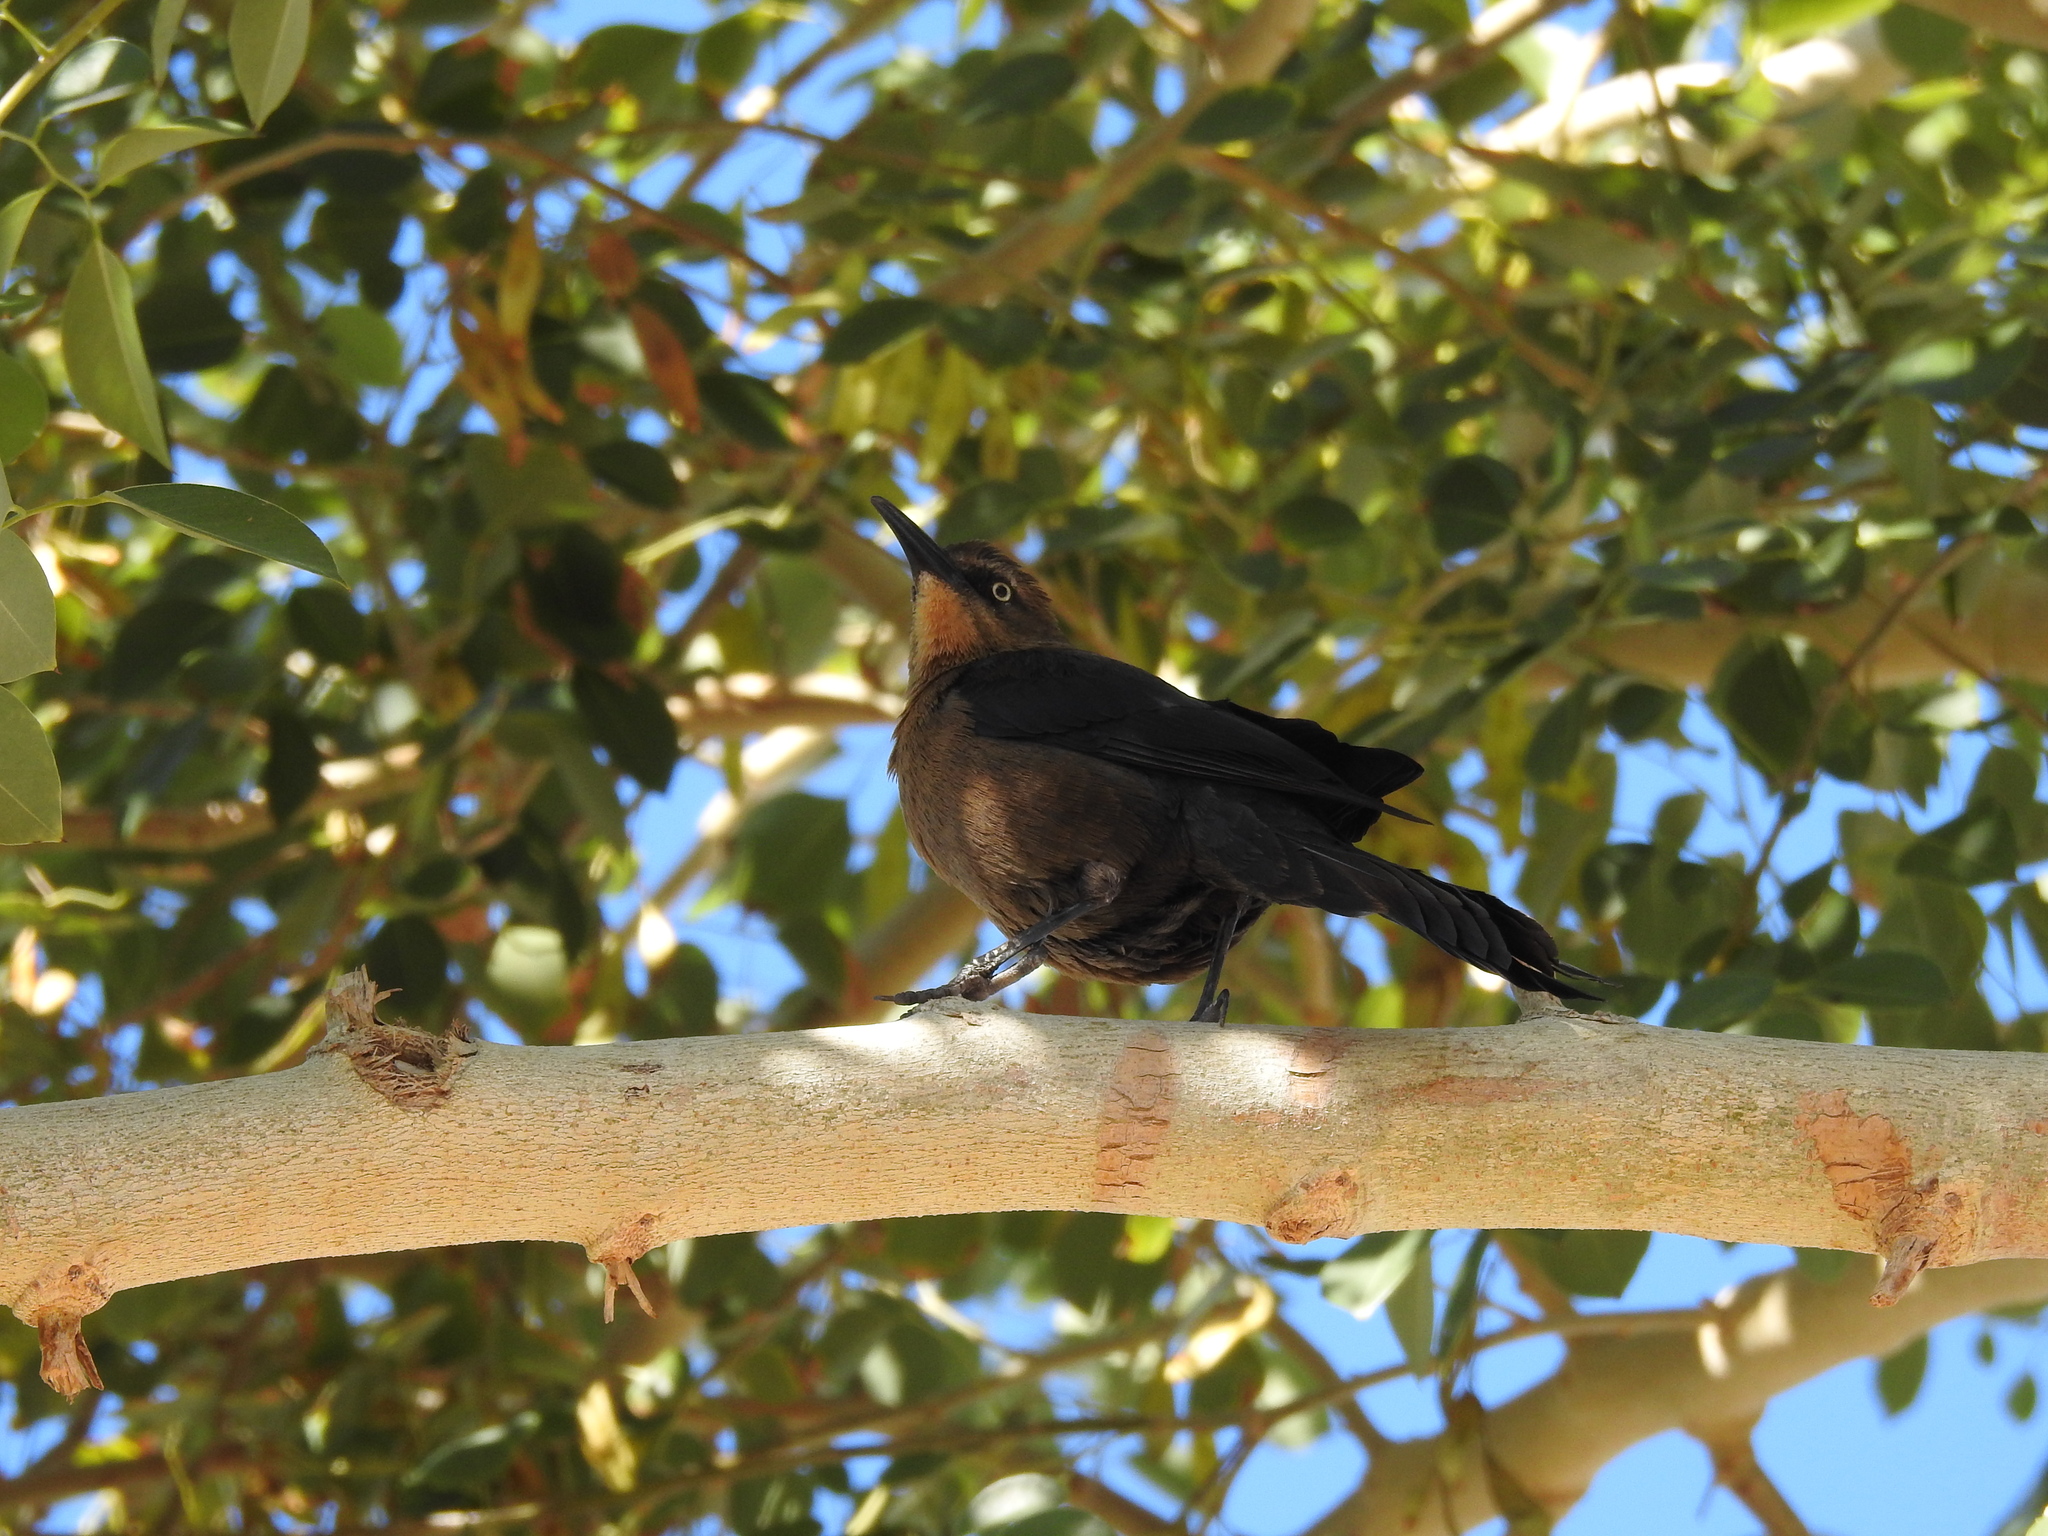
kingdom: Animalia
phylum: Chordata
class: Aves
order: Passeriformes
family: Icteridae
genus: Quiscalus
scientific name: Quiscalus mexicanus
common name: Great-tailed grackle
